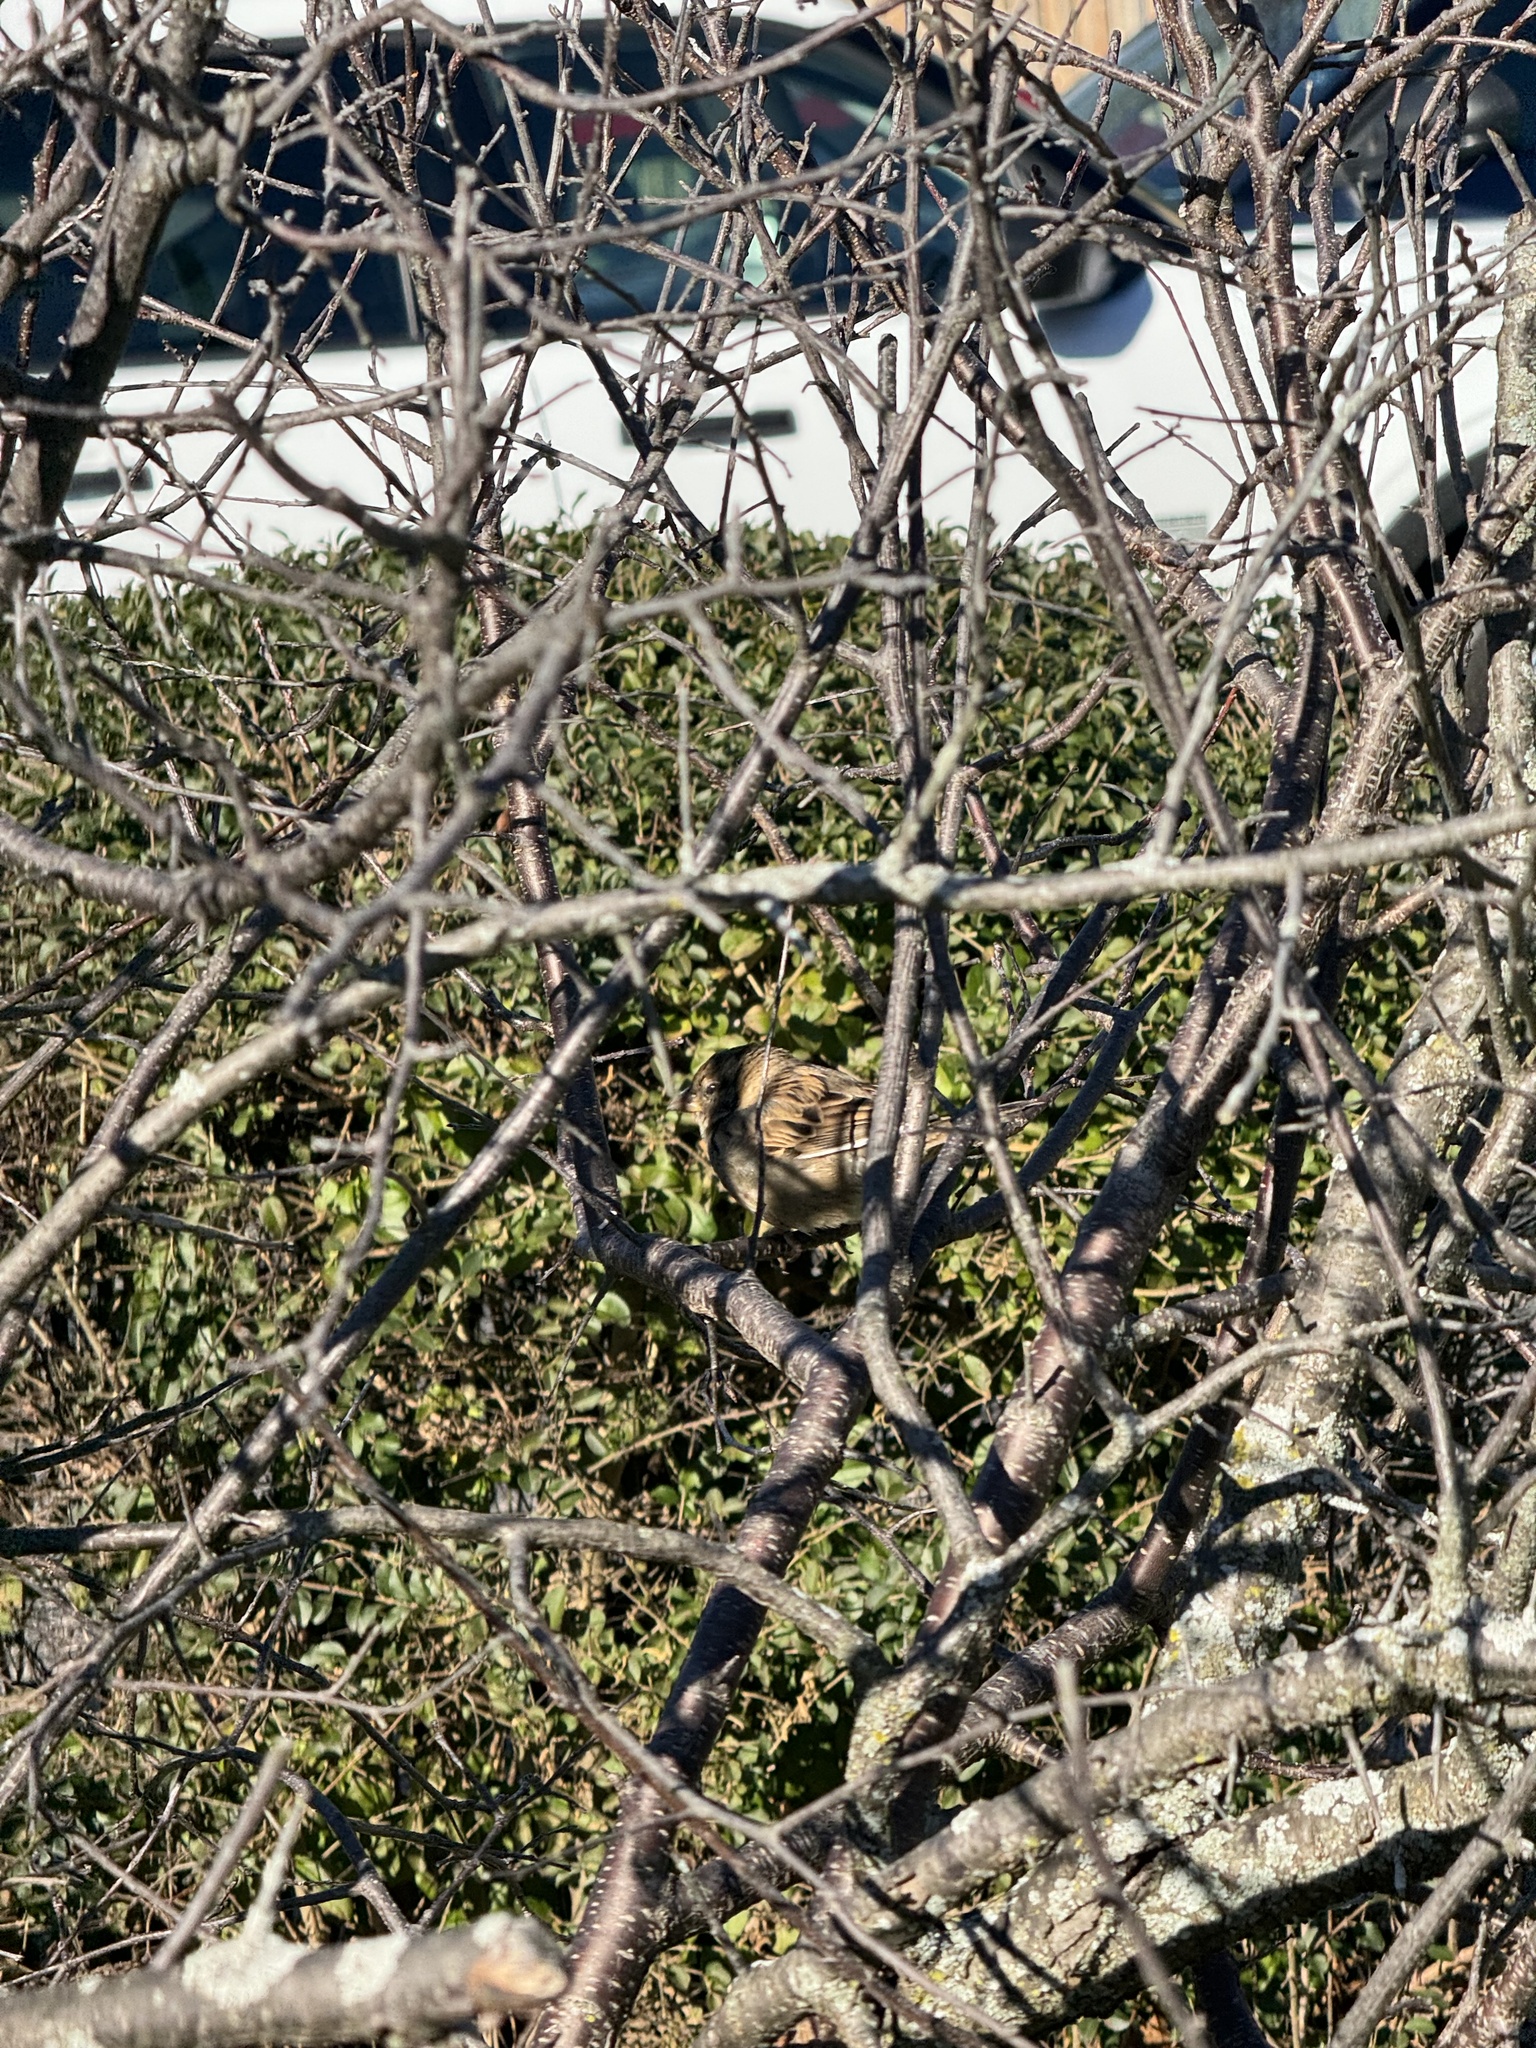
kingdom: Animalia
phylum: Chordata
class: Aves
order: Passeriformes
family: Passeridae
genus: Passer
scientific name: Passer domesticus
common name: House sparrow
